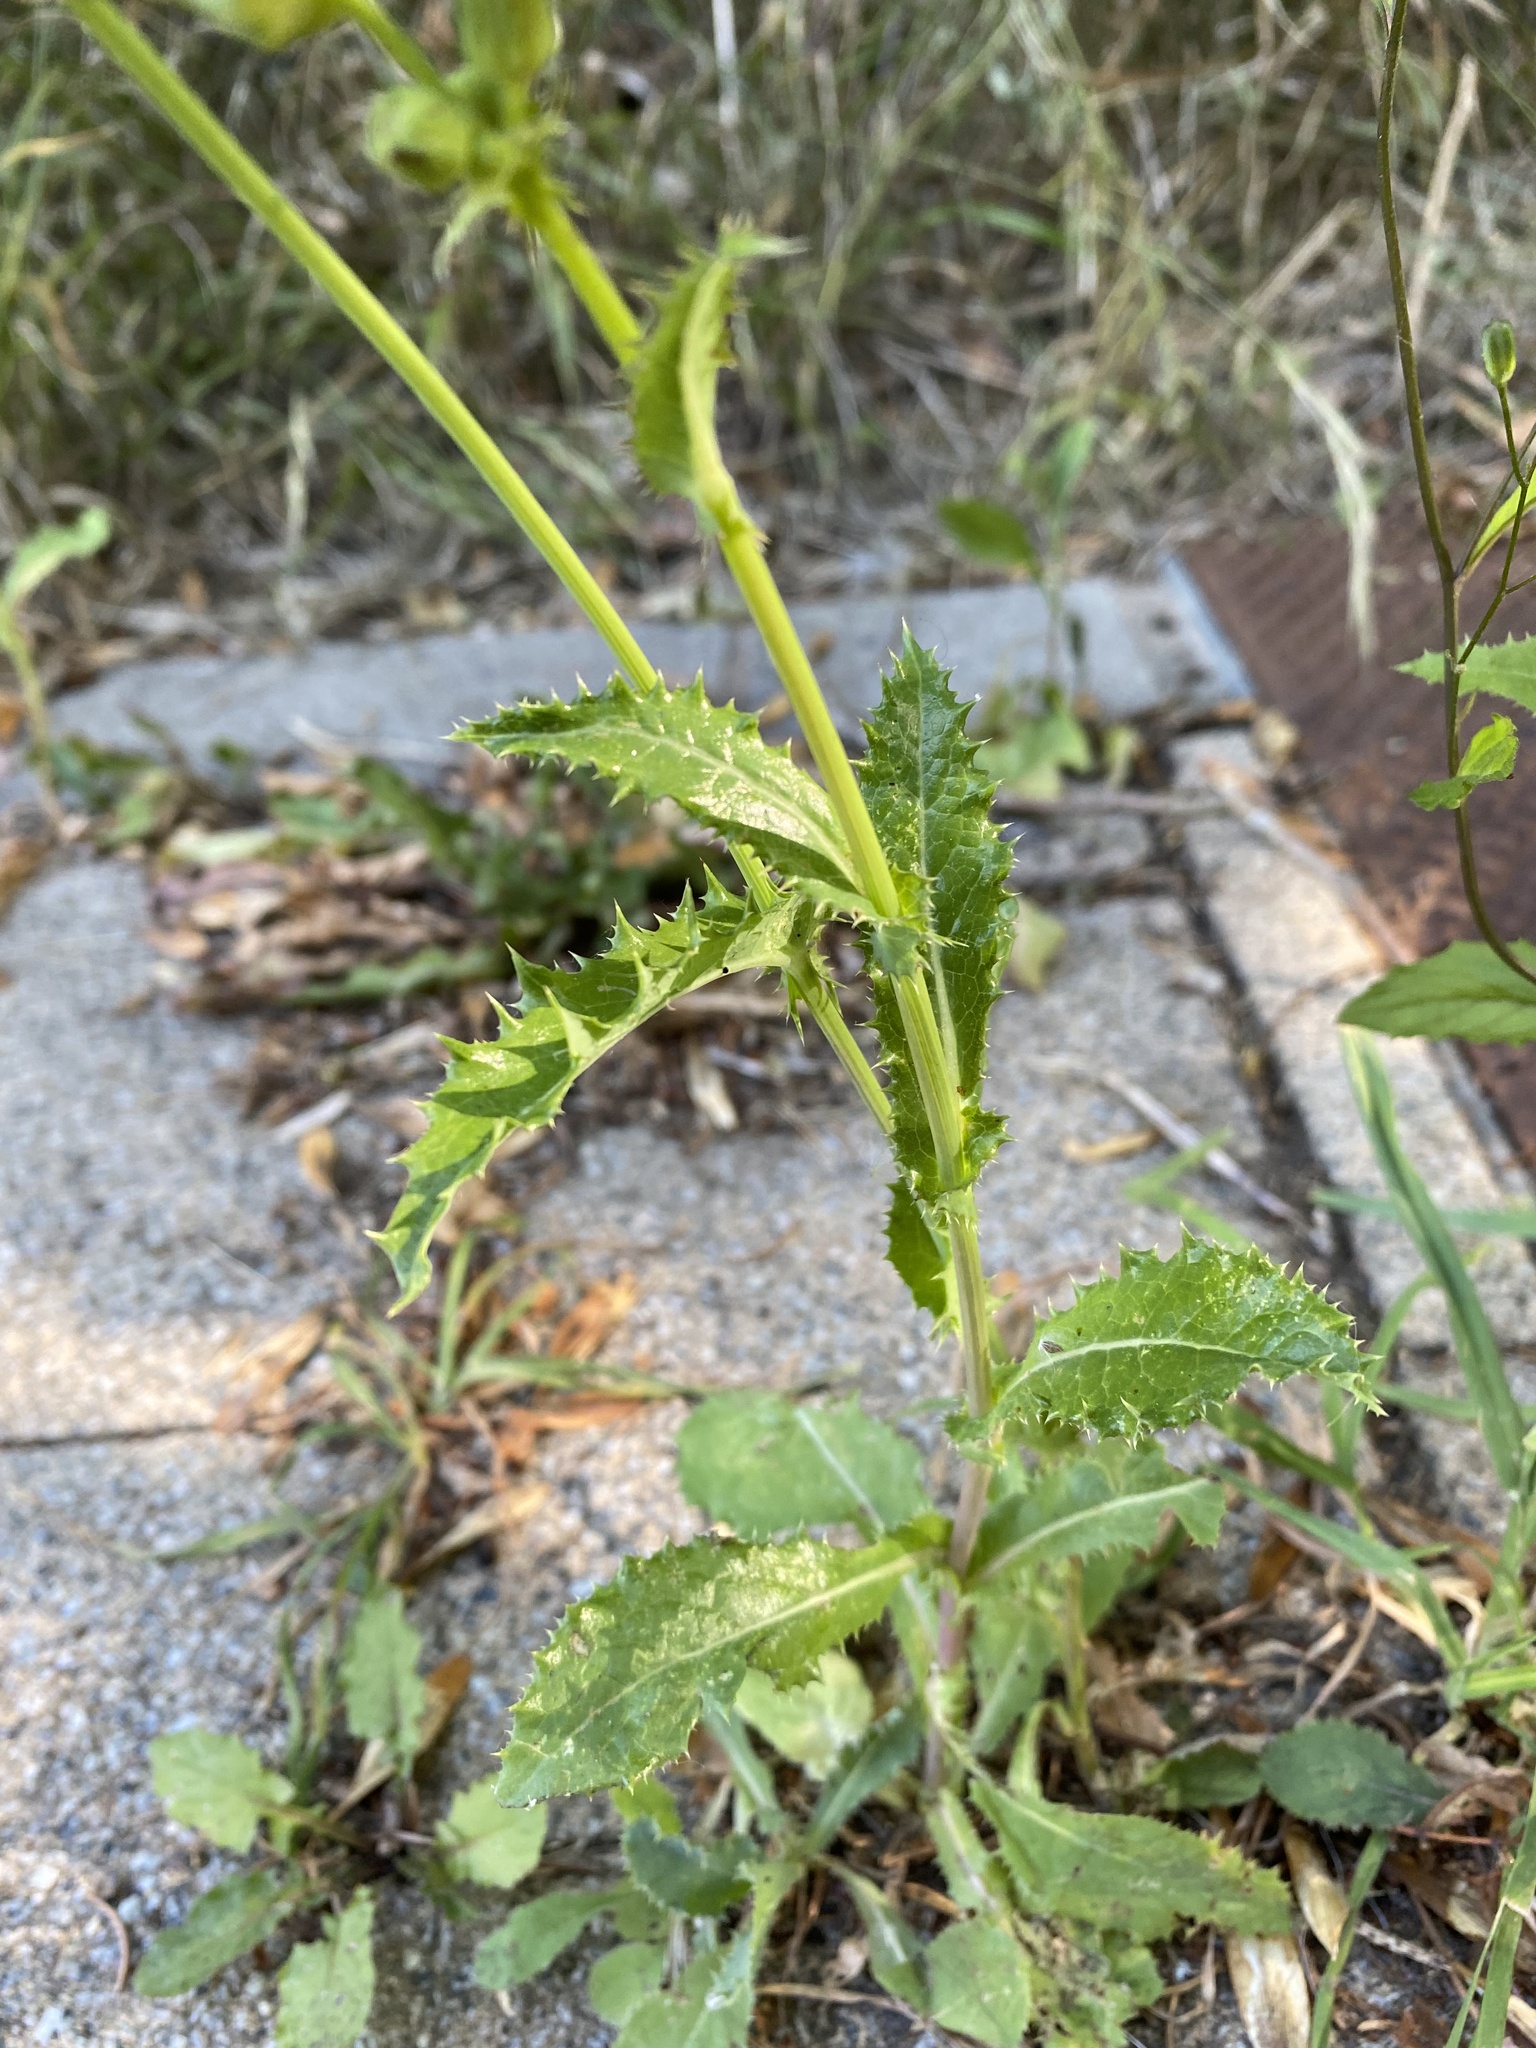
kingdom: Plantae
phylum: Tracheophyta
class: Magnoliopsida
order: Asterales
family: Asteraceae
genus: Sonchus
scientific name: Sonchus asper
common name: Prickly sow-thistle
